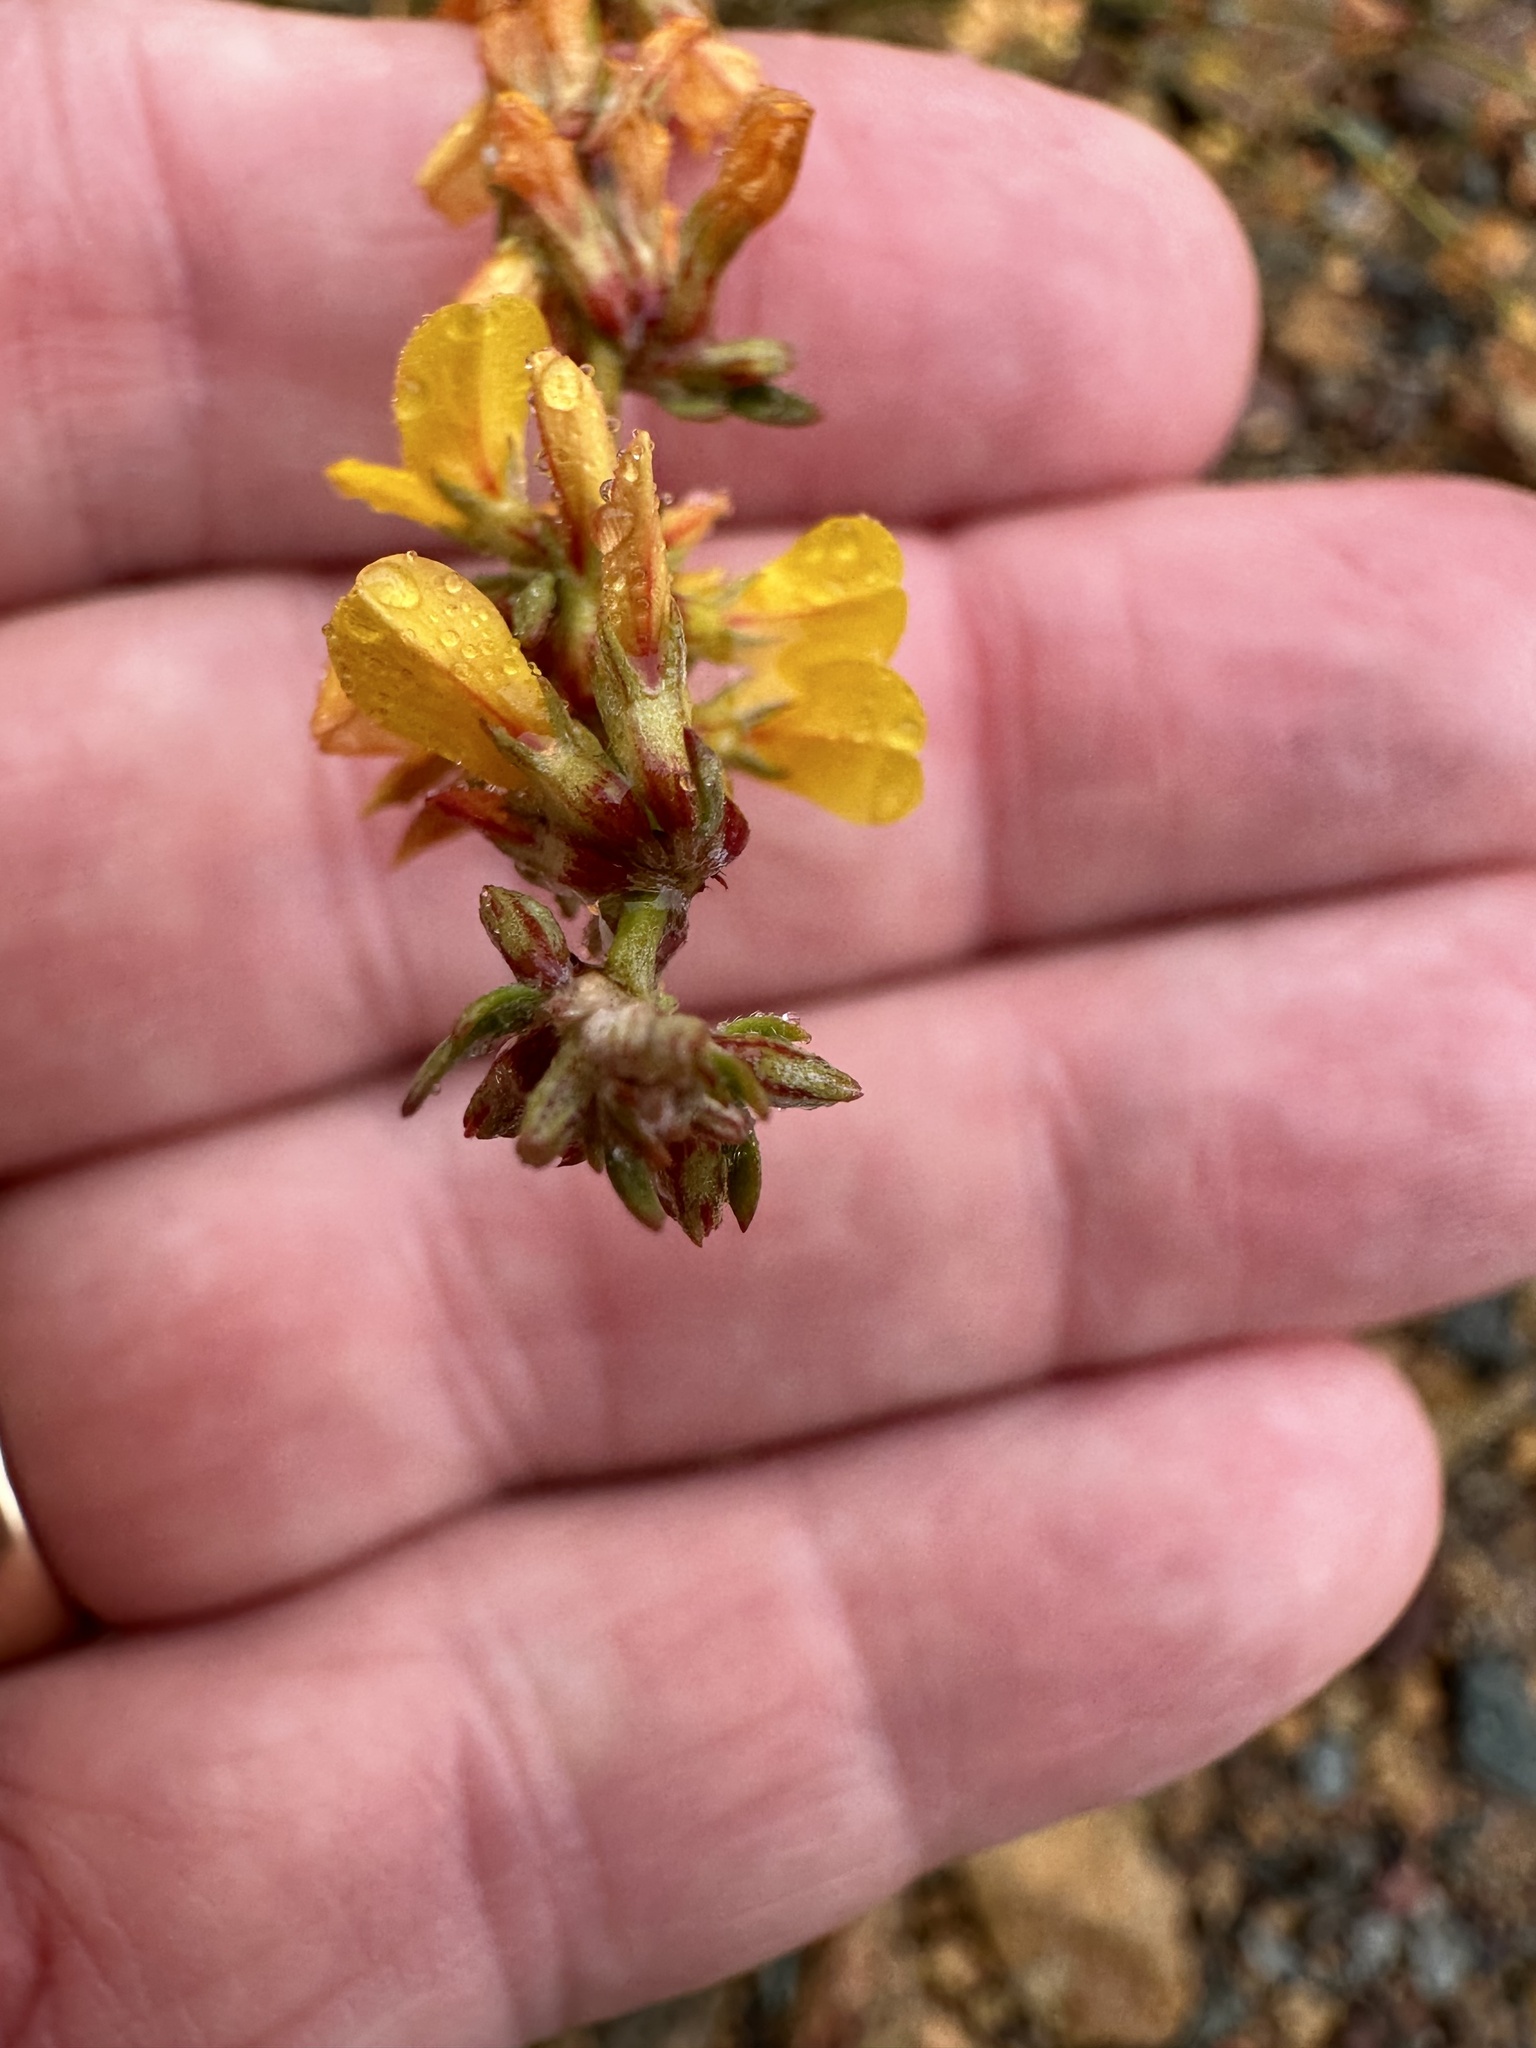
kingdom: Plantae
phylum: Tracheophyta
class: Magnoliopsida
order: Fabales
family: Fabaceae
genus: Acmispon
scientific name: Acmispon glaber
